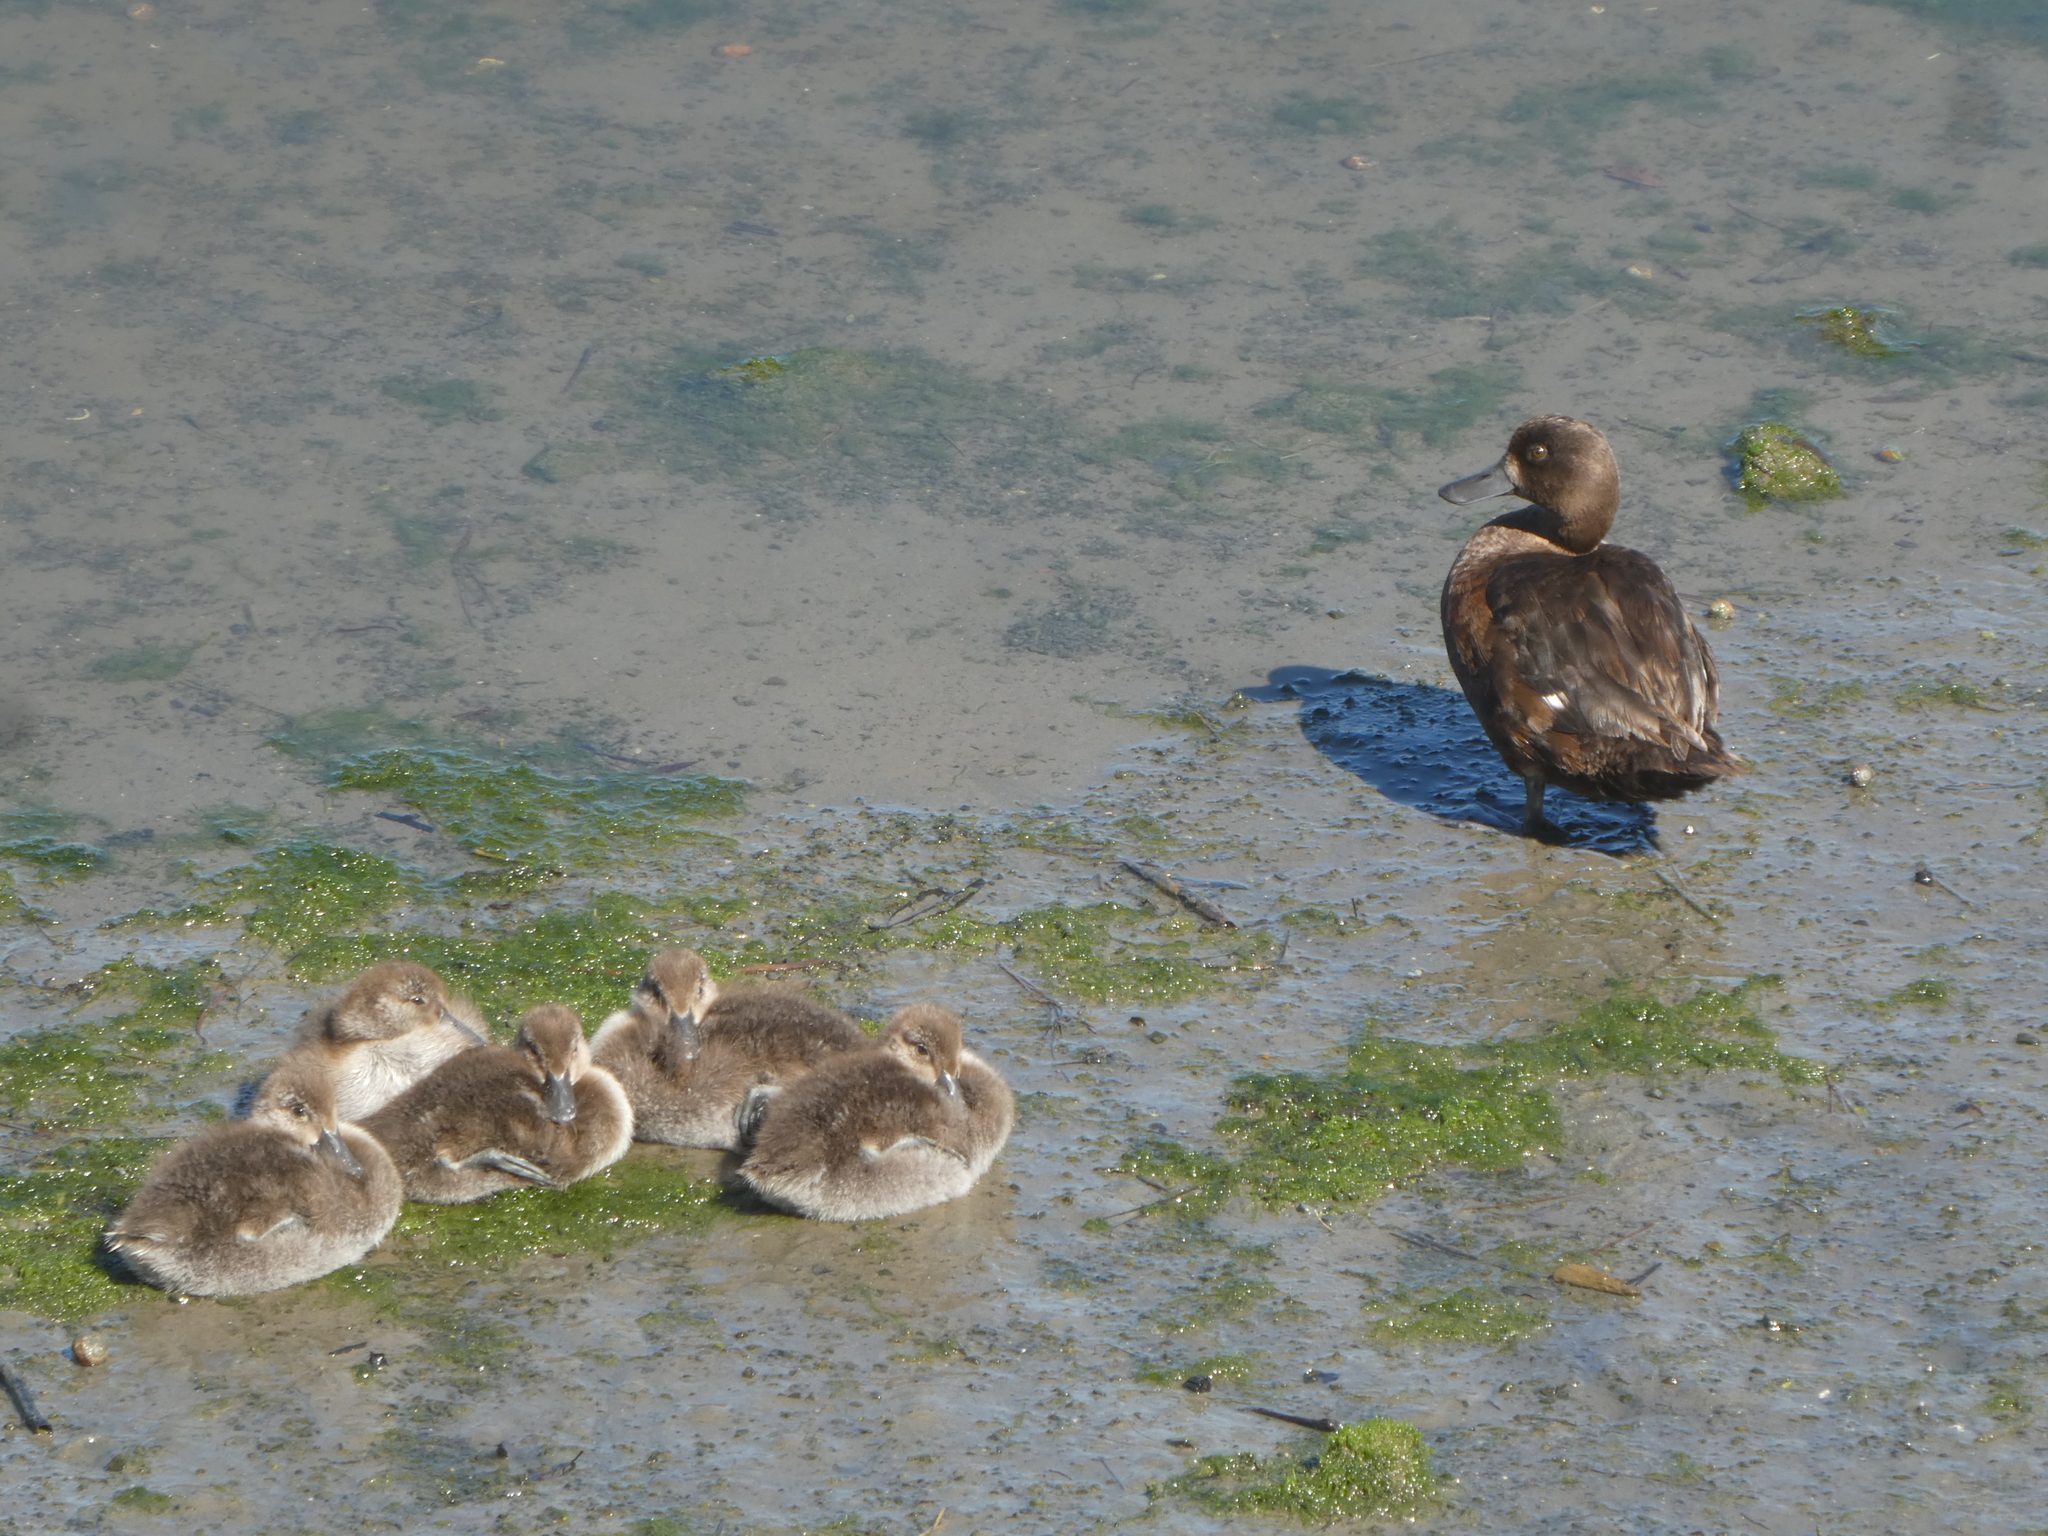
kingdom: Animalia
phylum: Chordata
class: Aves
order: Anseriformes
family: Anatidae
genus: Aythya
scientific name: Aythya novaeseelandiae
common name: New zealand scaup
